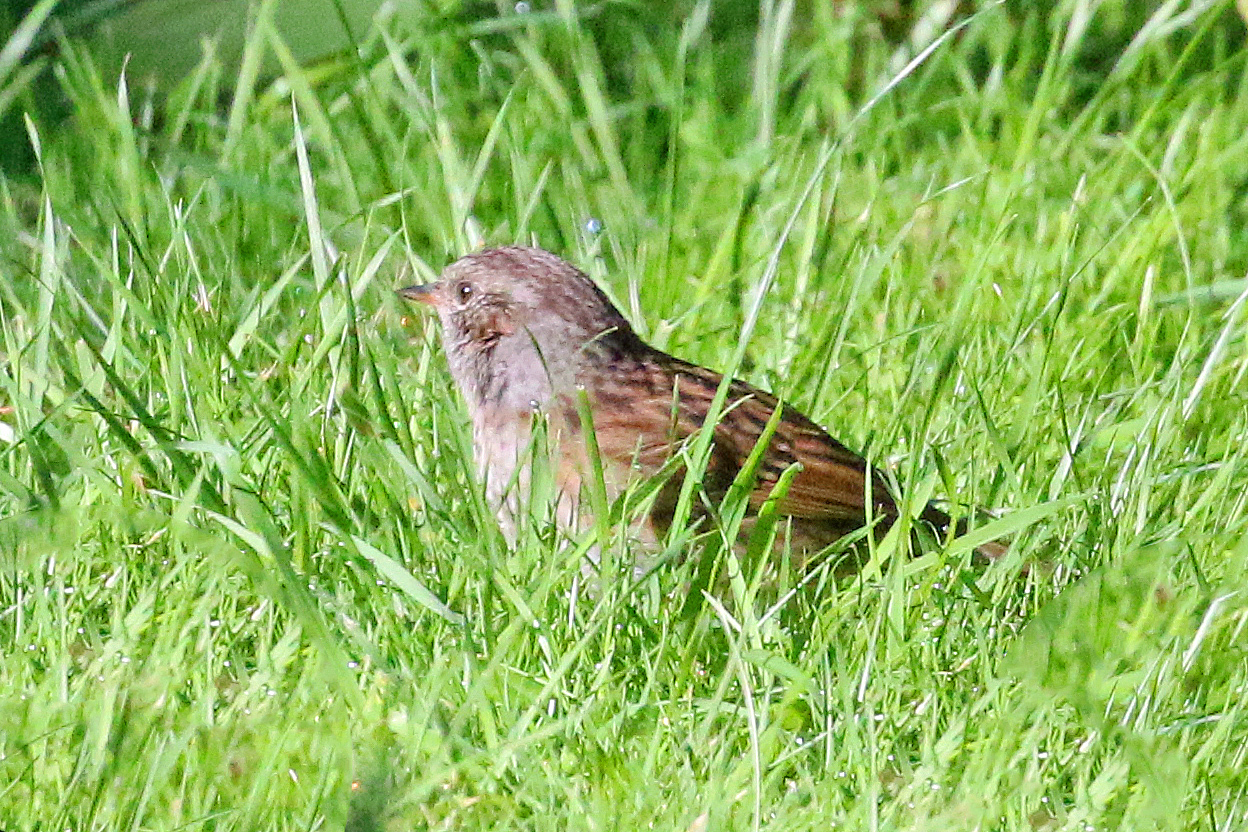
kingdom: Animalia
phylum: Chordata
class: Aves
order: Passeriformes
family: Prunellidae
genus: Prunella
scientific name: Prunella modularis
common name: Dunnock
